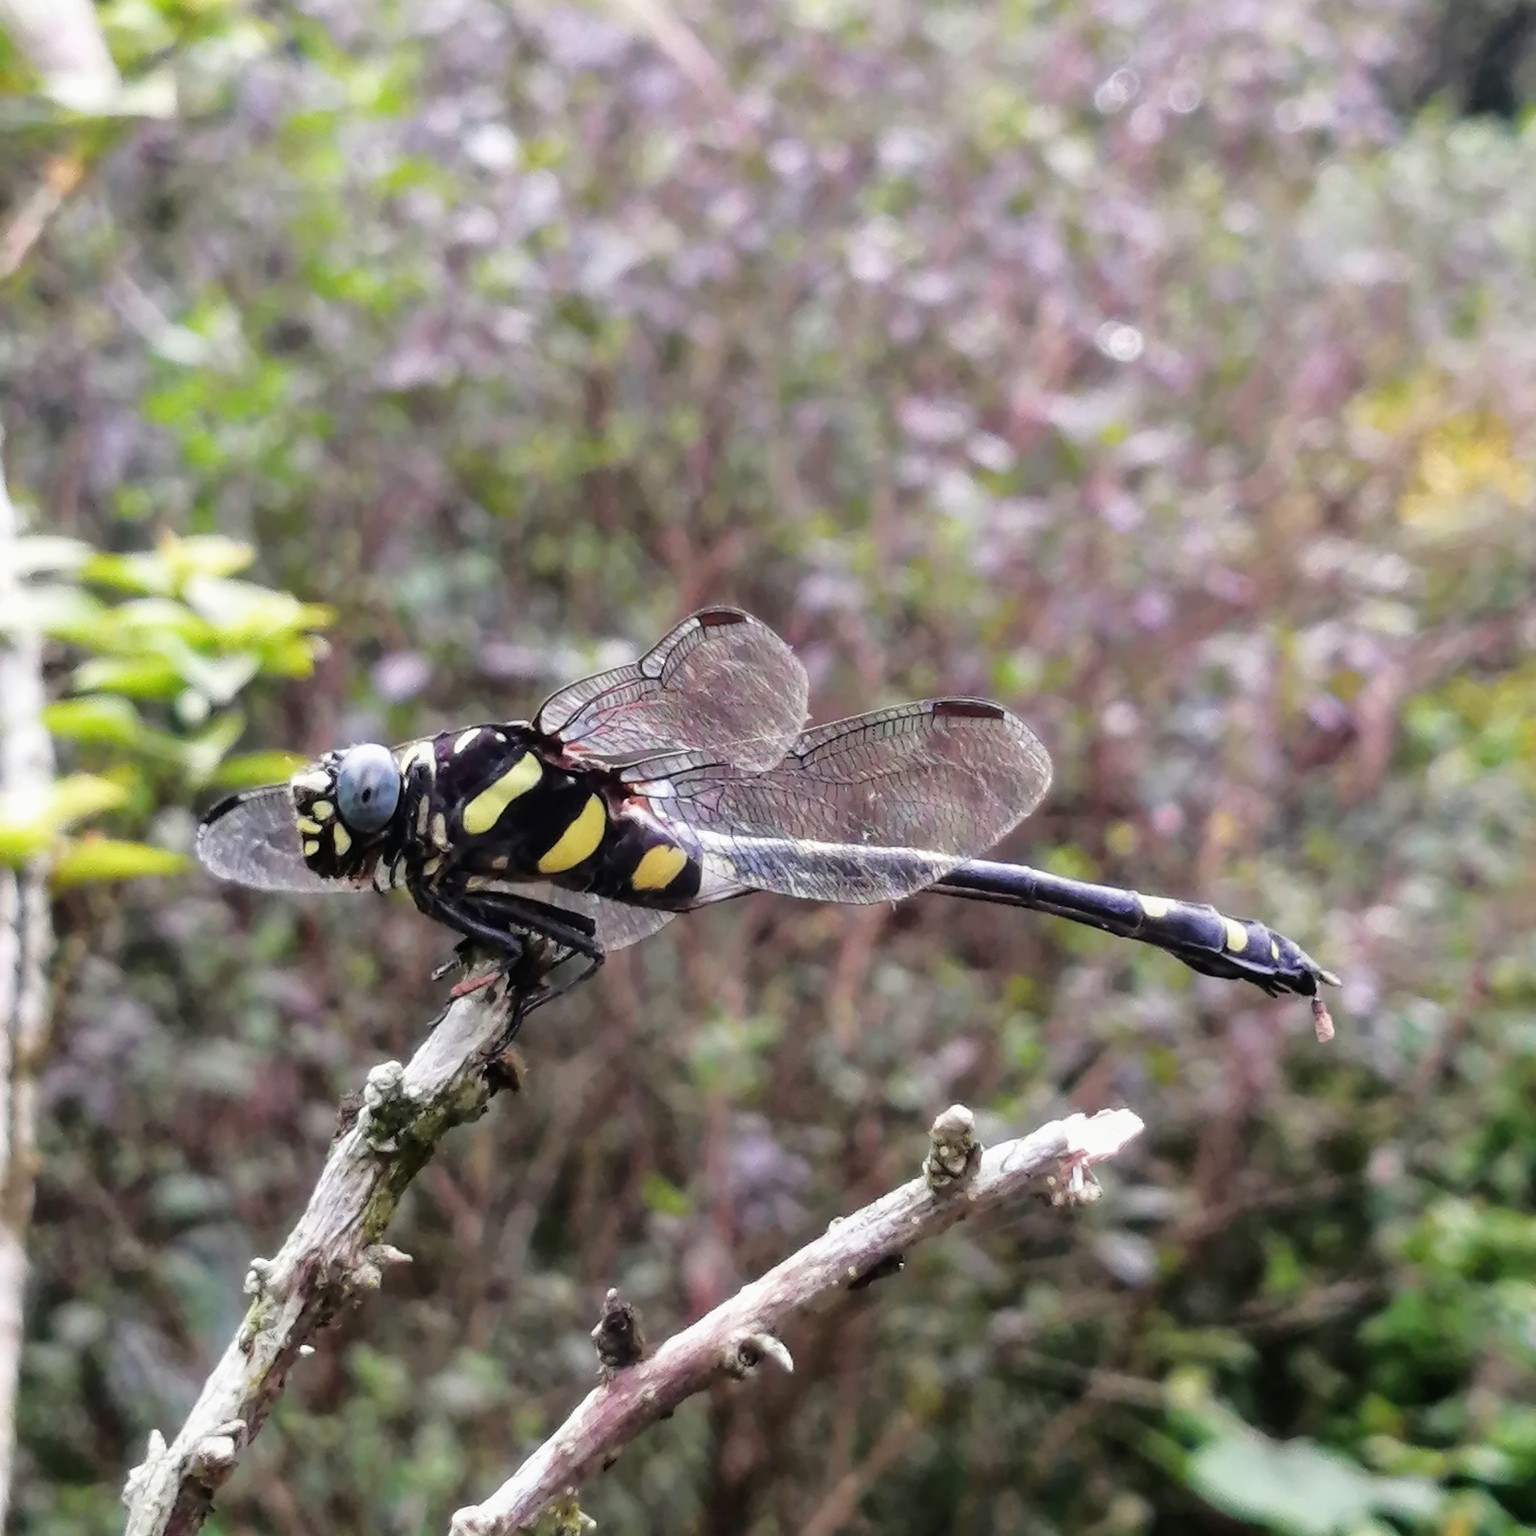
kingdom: Animalia
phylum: Arthropoda
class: Insecta
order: Odonata
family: Gomphidae
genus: Ictinogomphus
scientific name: Ictinogomphus rapax
